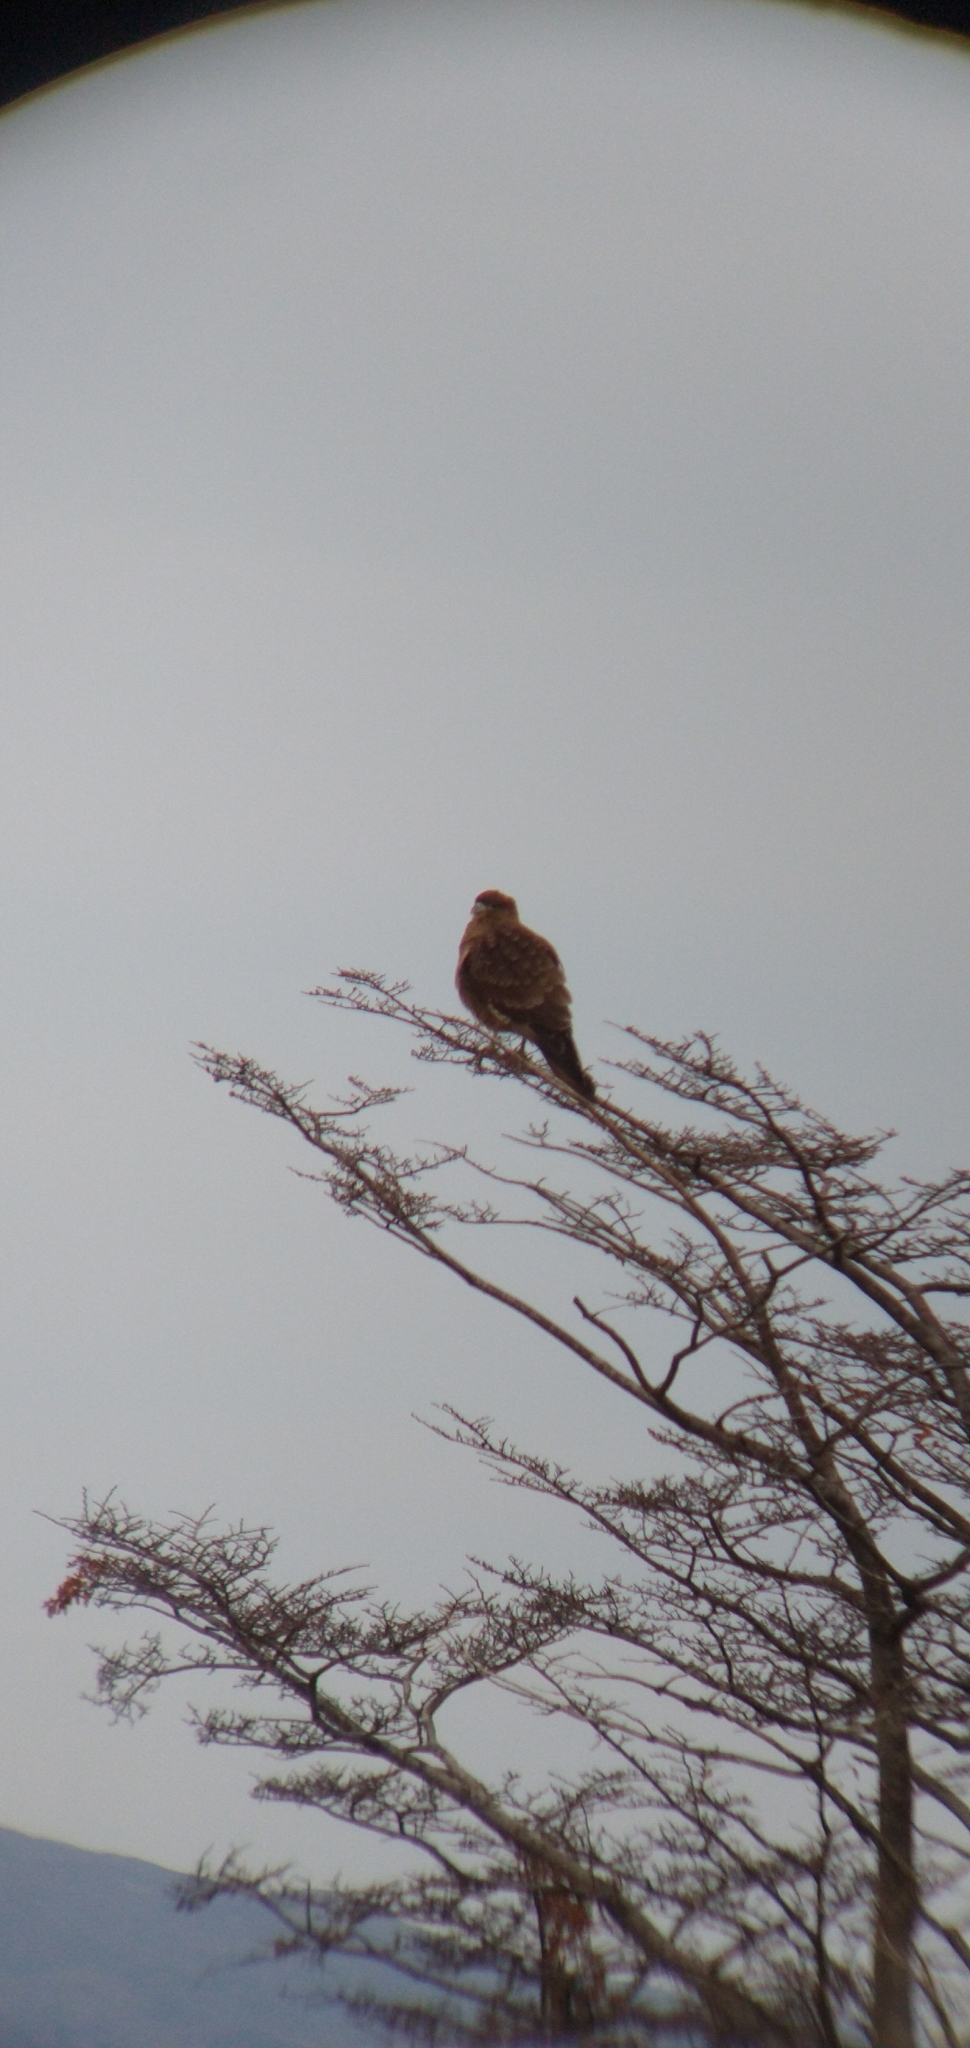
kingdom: Animalia
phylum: Chordata
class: Aves
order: Falconiformes
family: Falconidae
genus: Daptrius
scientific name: Daptrius
